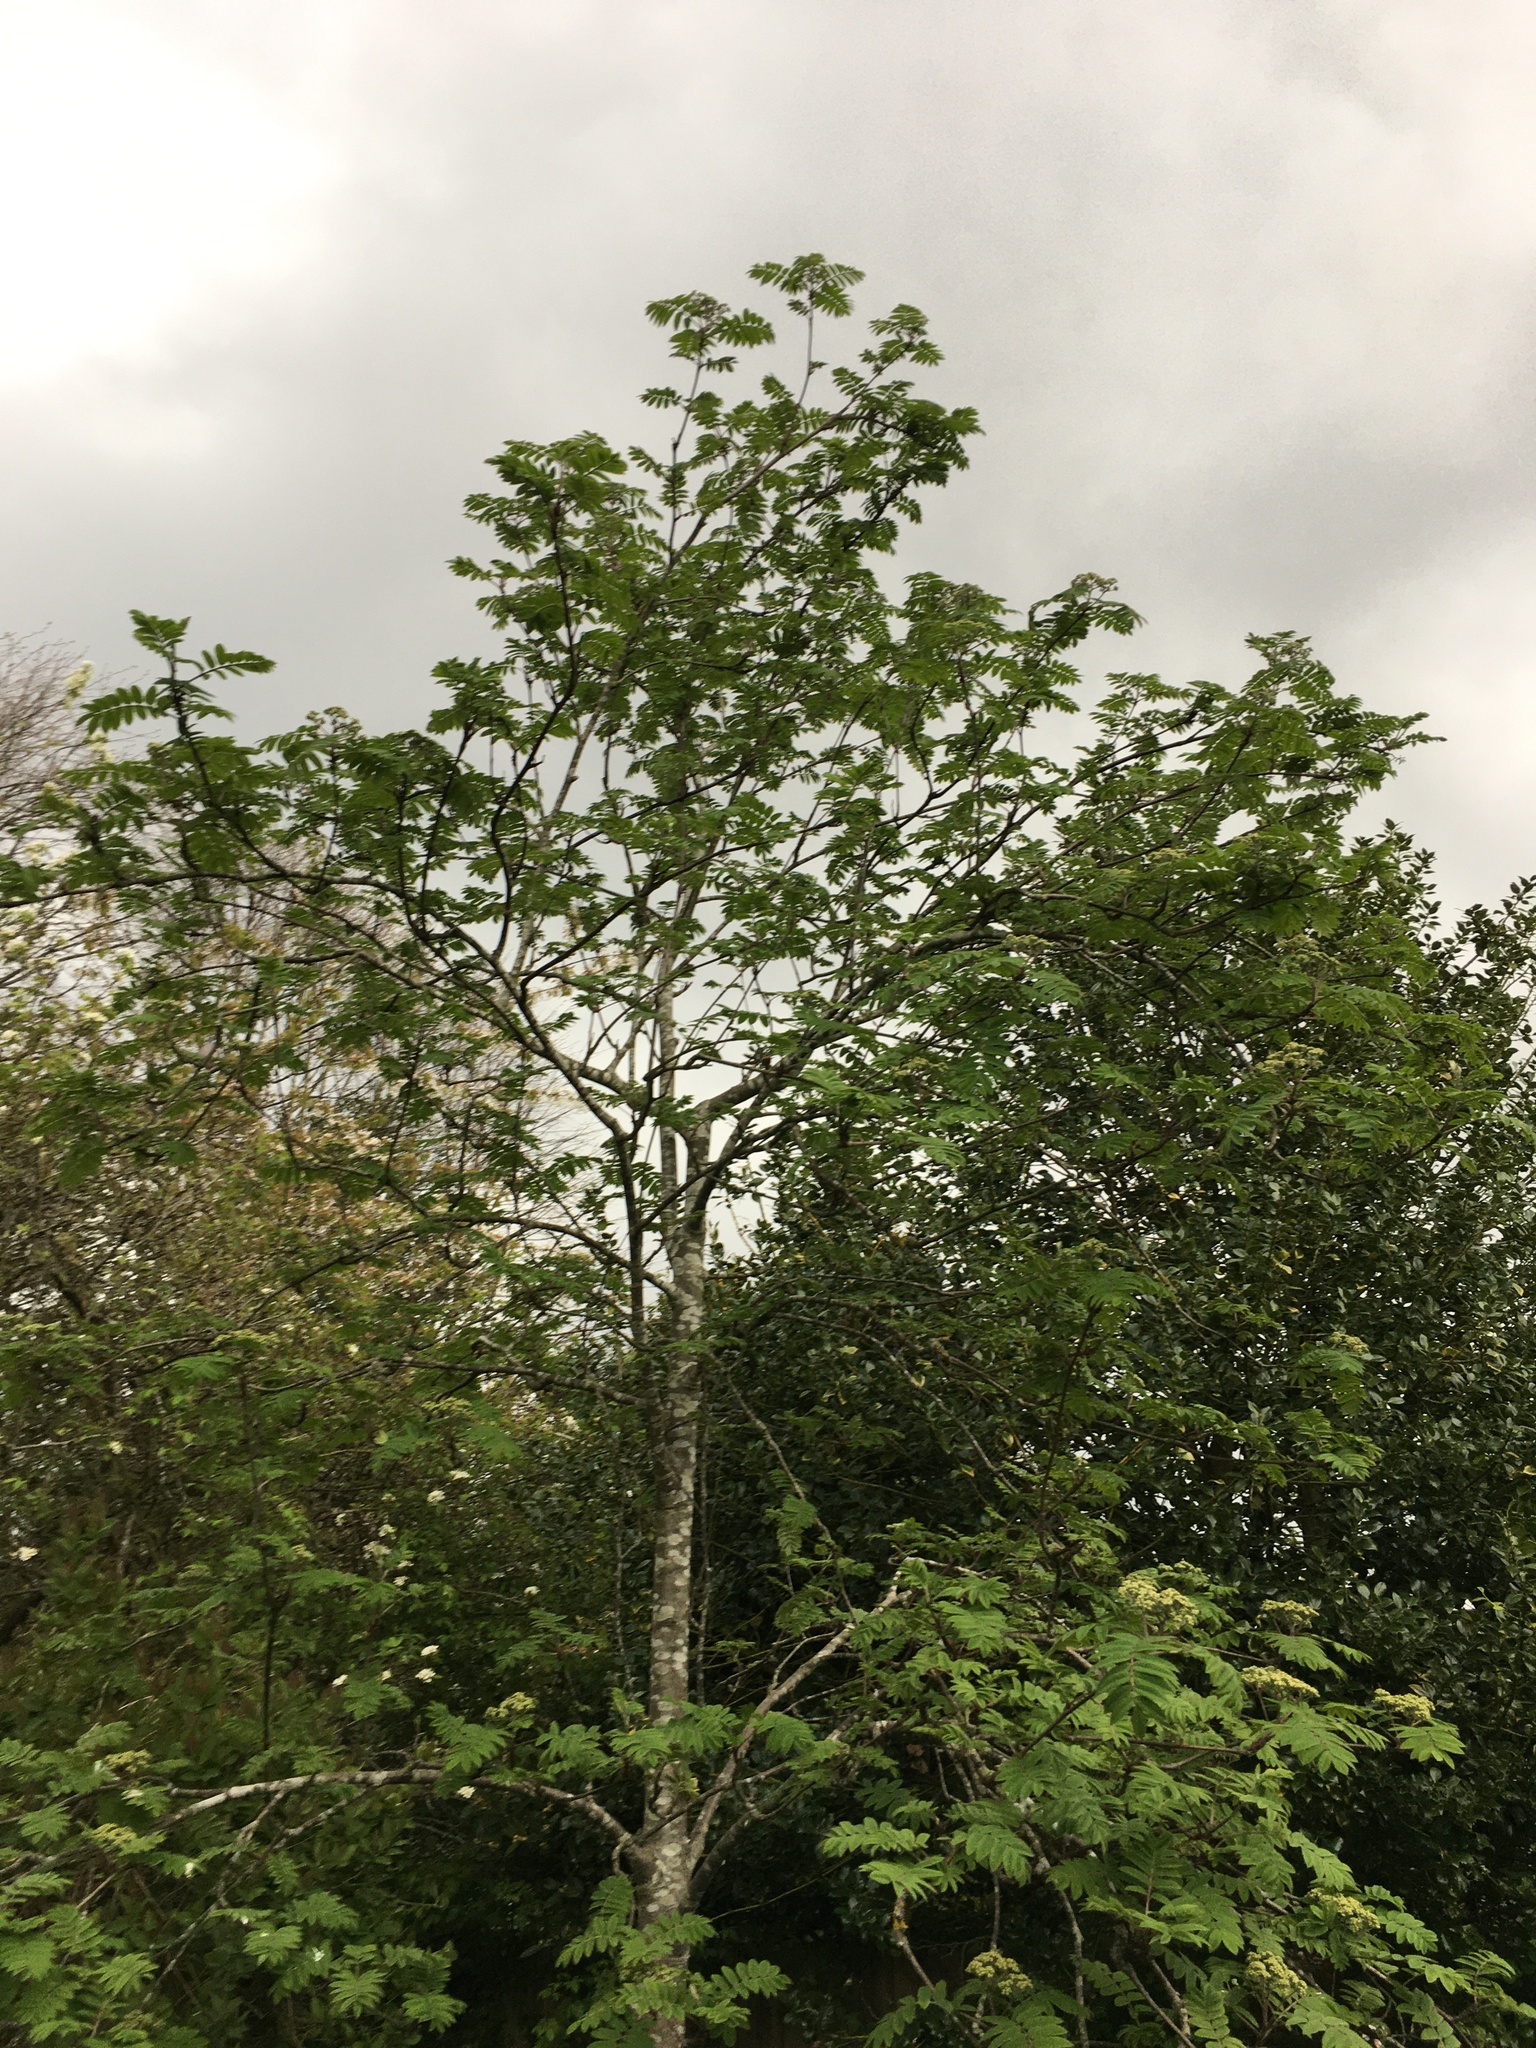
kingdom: Plantae
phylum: Tracheophyta
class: Magnoliopsida
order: Rosales
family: Rosaceae
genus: Sorbus
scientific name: Sorbus aucuparia
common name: Rowan
